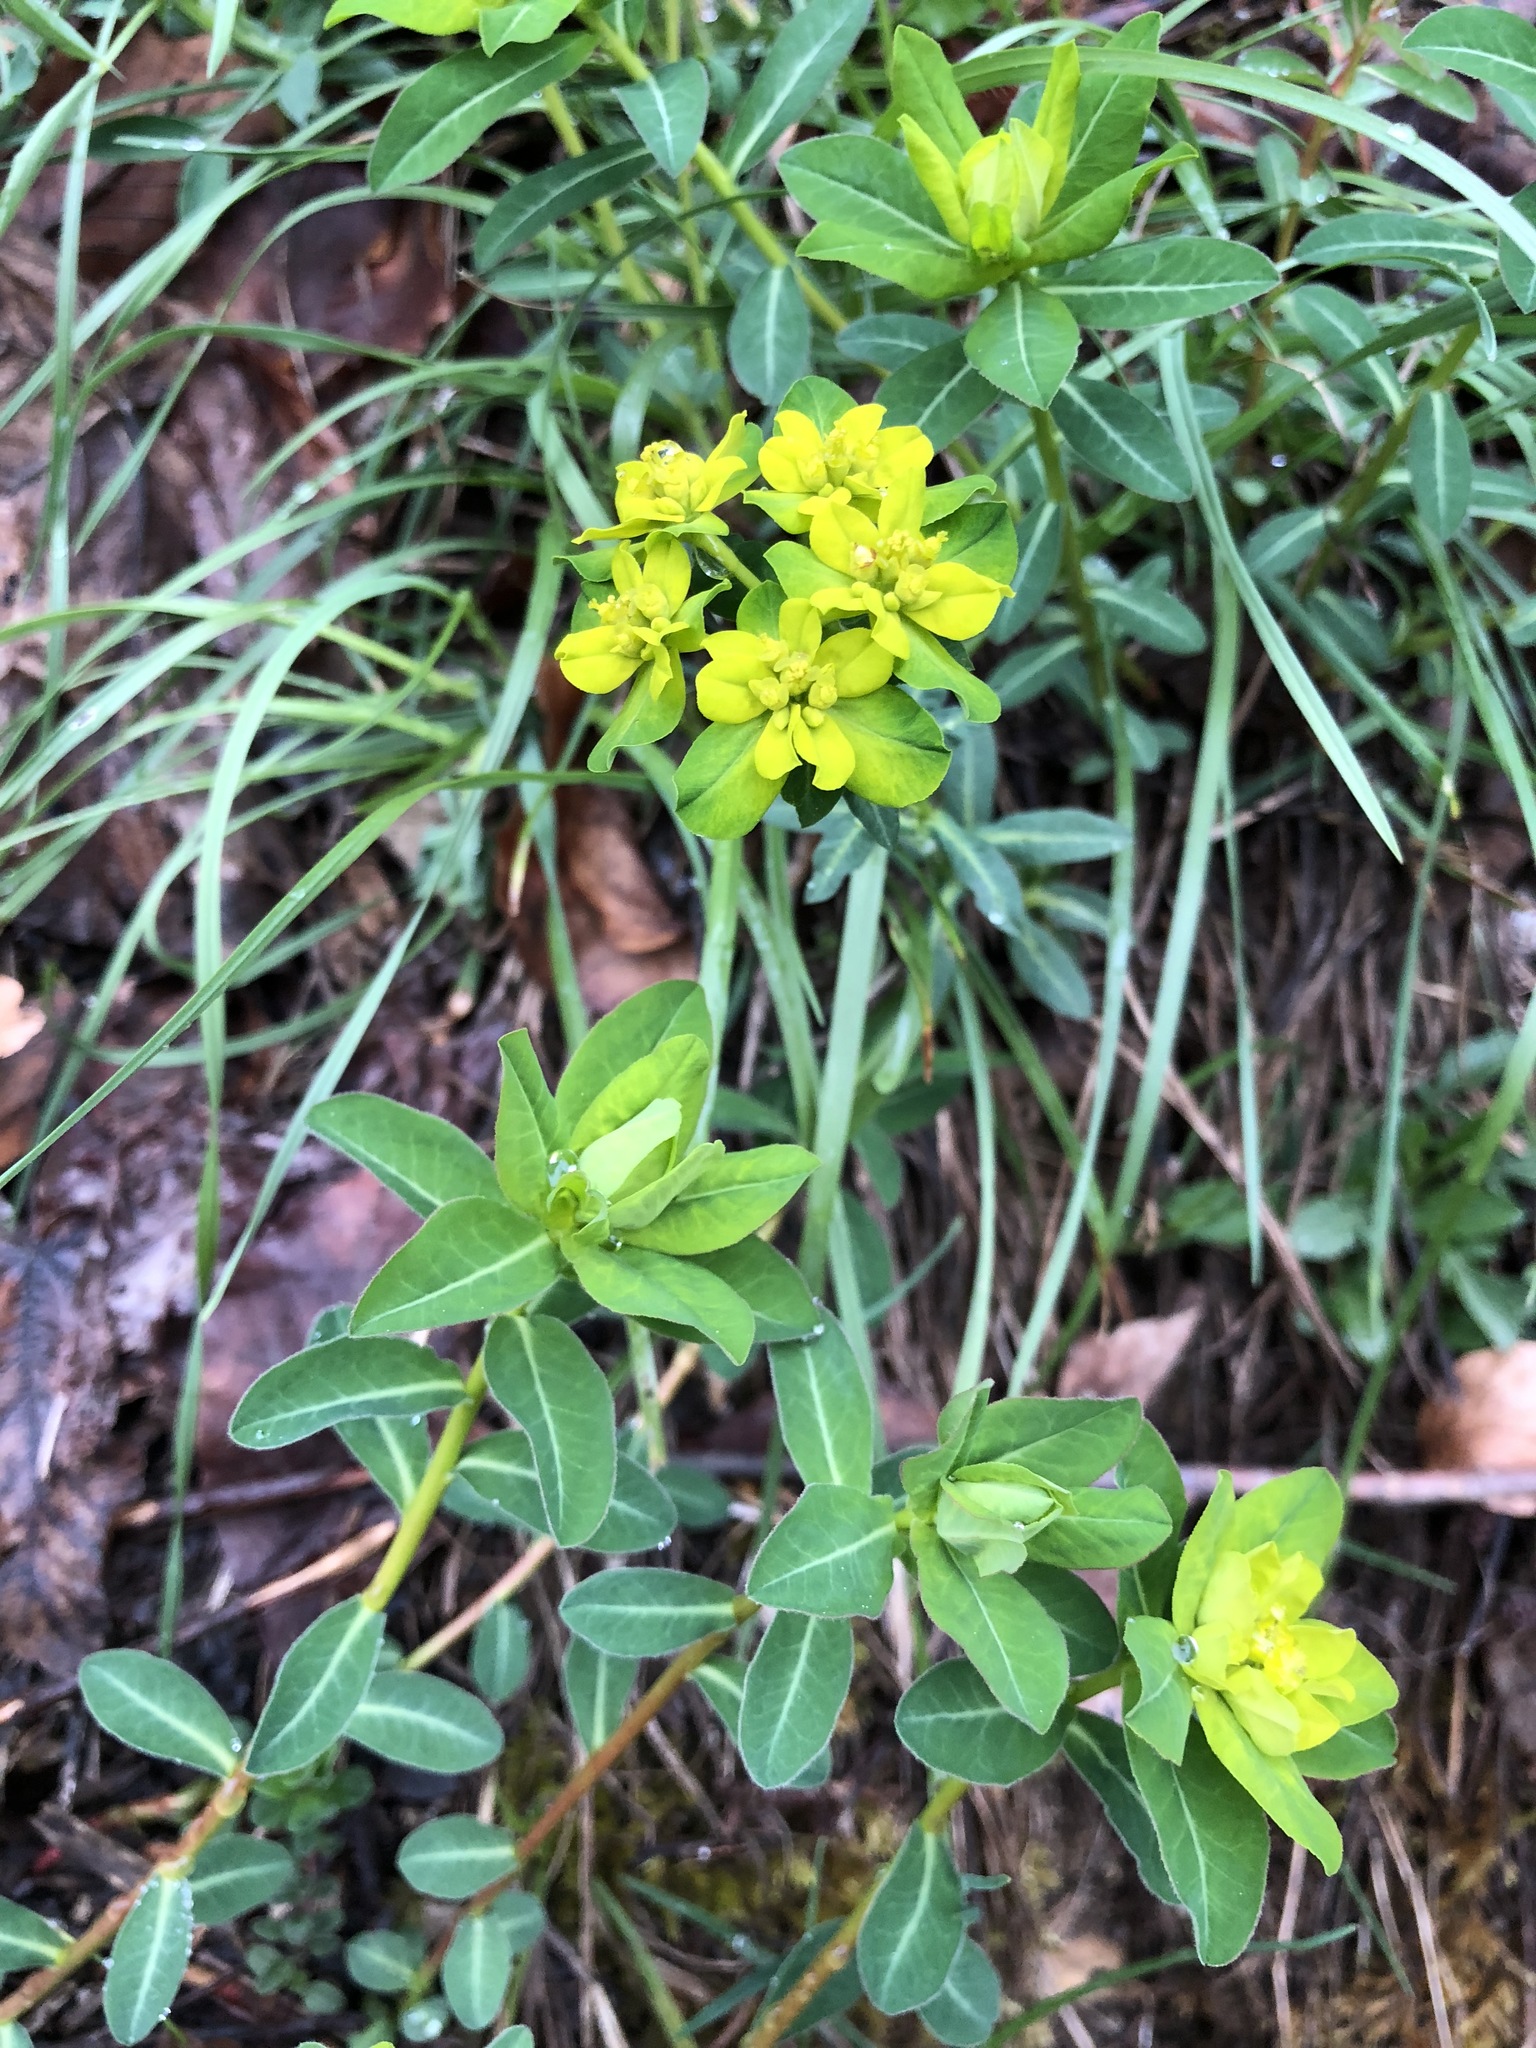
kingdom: Plantae
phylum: Tracheophyta
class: Magnoliopsida
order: Malpighiales
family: Euphorbiaceae
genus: Euphorbia
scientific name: Euphorbia verrucosa
